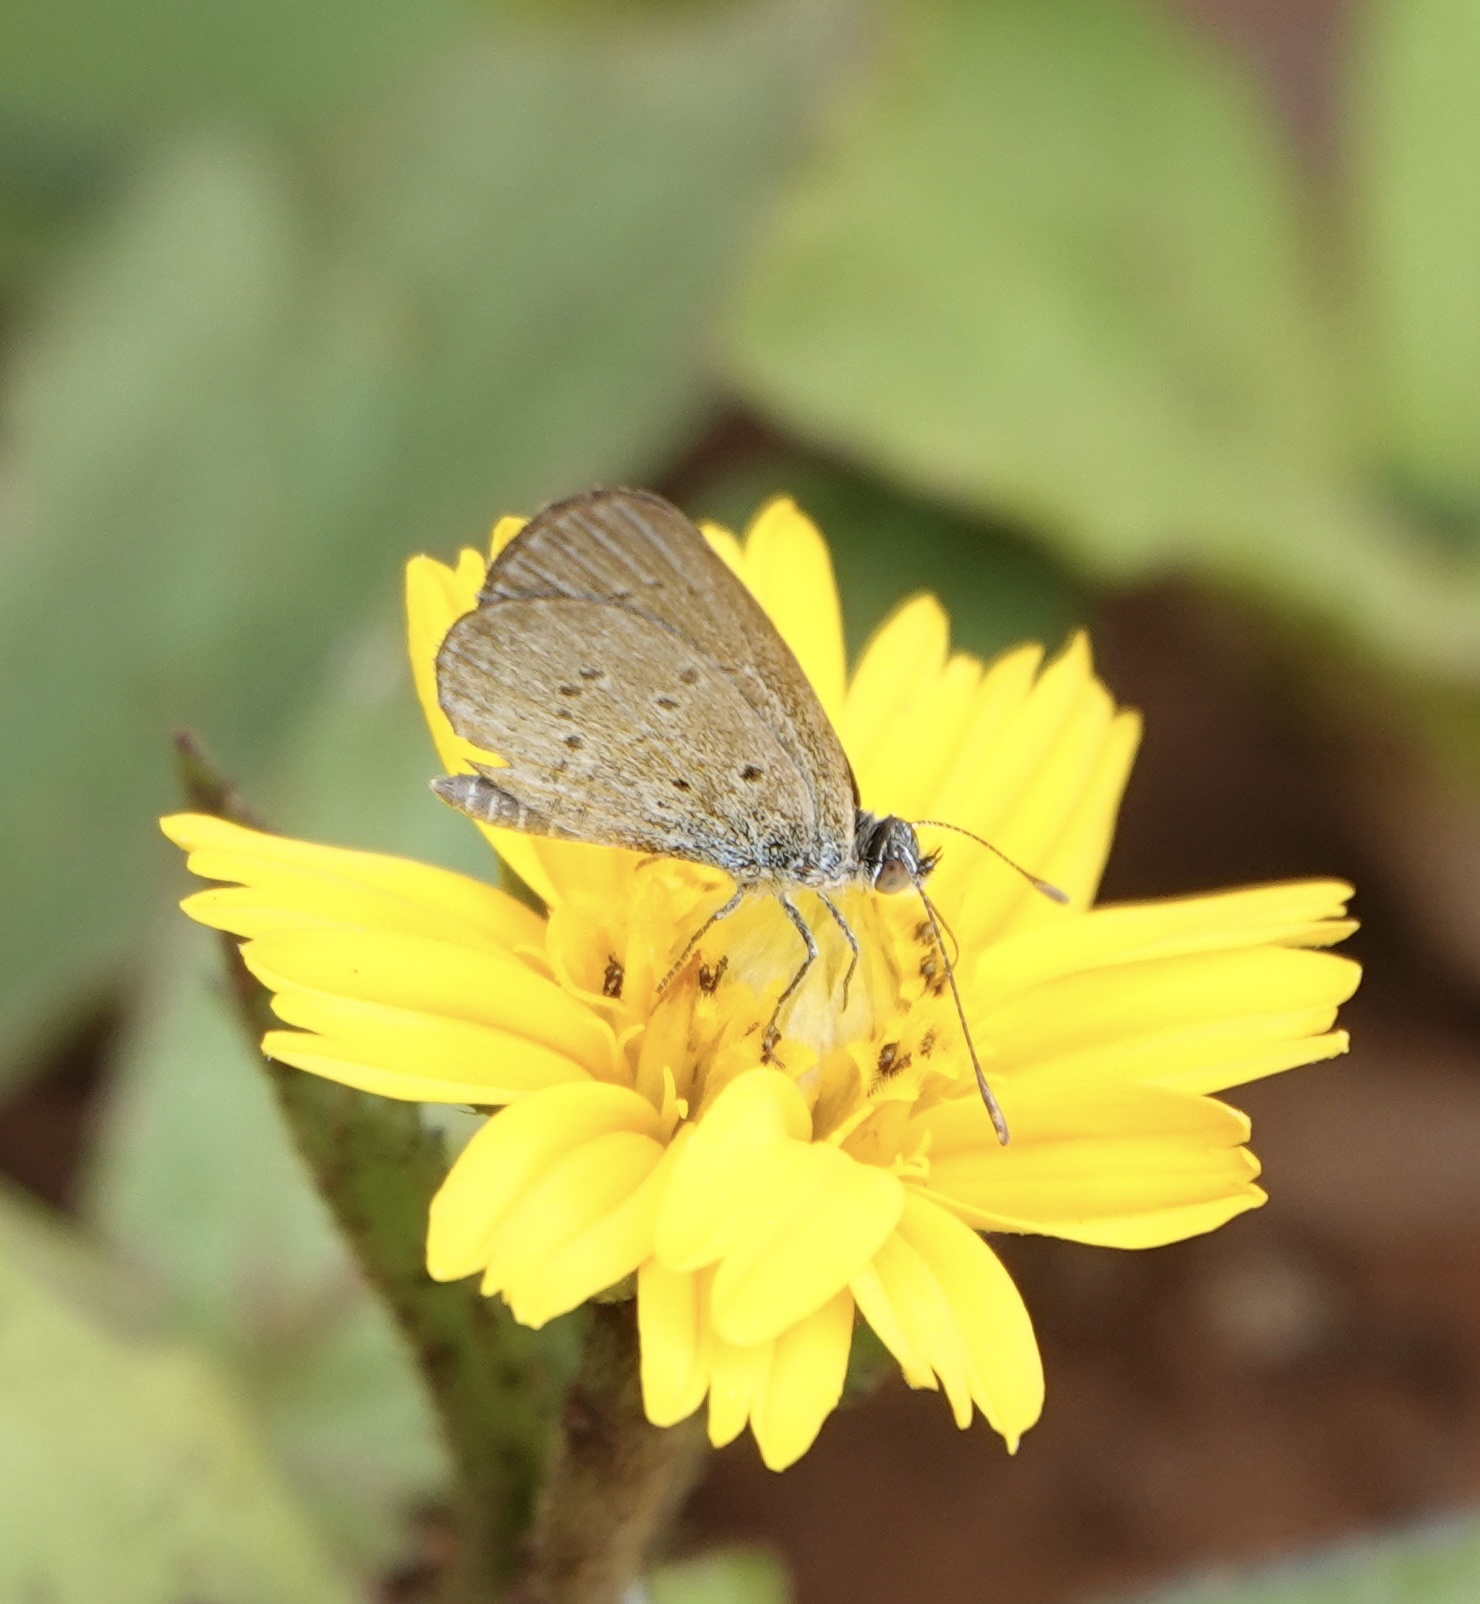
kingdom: Animalia
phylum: Arthropoda
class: Insecta
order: Lepidoptera
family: Lycaenidae
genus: Zizina
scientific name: Zizina otis
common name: Lesser grass blue
